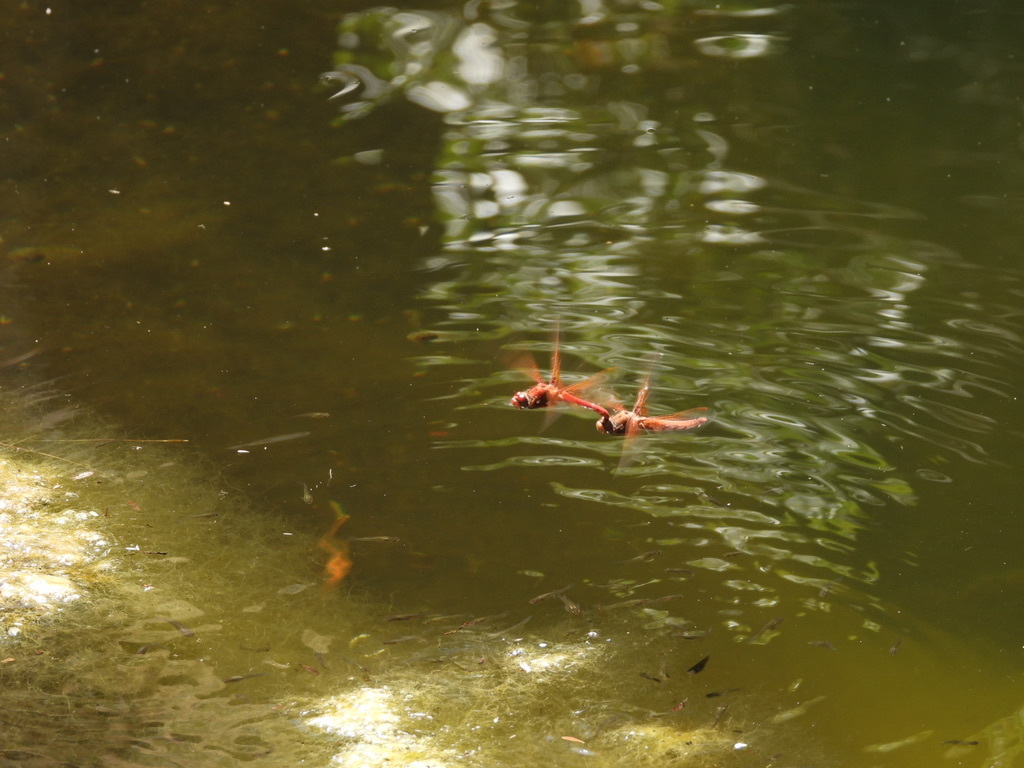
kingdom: Animalia
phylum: Arthropoda
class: Insecta
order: Odonata
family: Libellulidae
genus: Sympetrum
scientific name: Sympetrum illotum
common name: Cardinal meadowhawk
